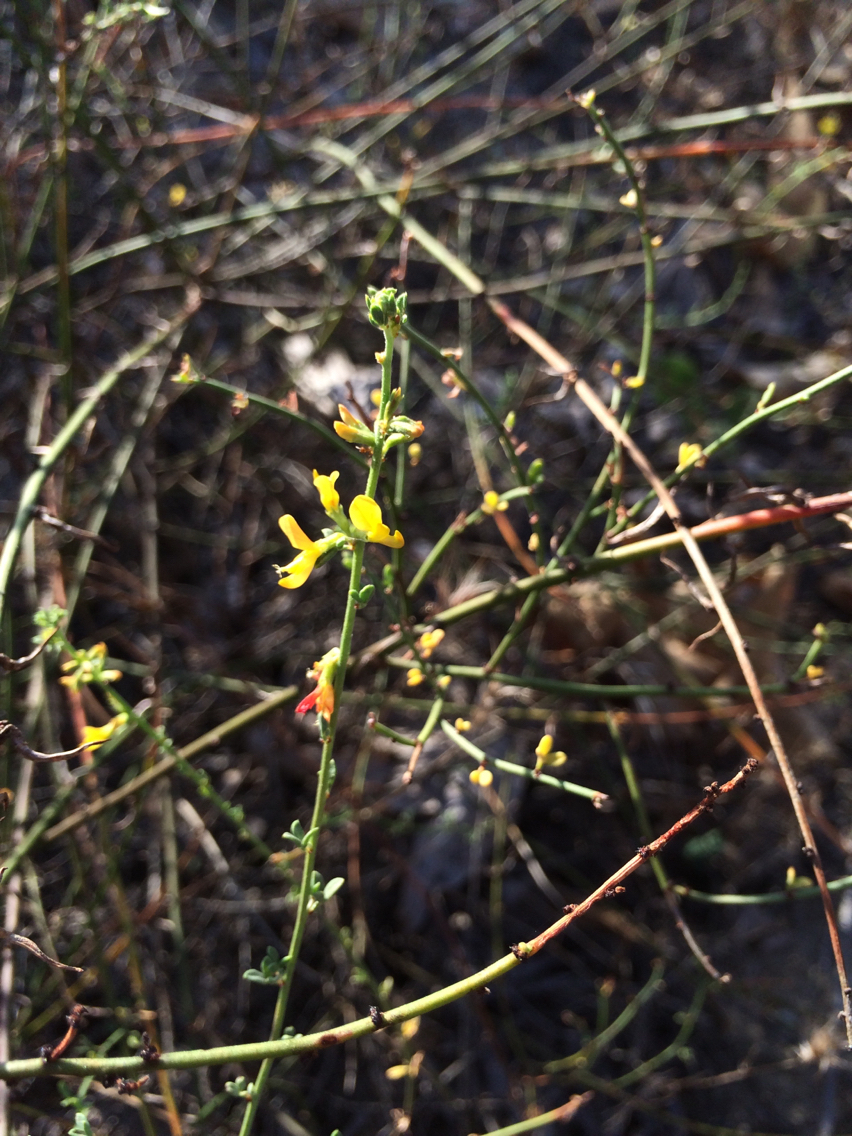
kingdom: Plantae
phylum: Tracheophyta
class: Magnoliopsida
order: Fabales
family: Fabaceae
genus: Acmispon
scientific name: Acmispon glaber
